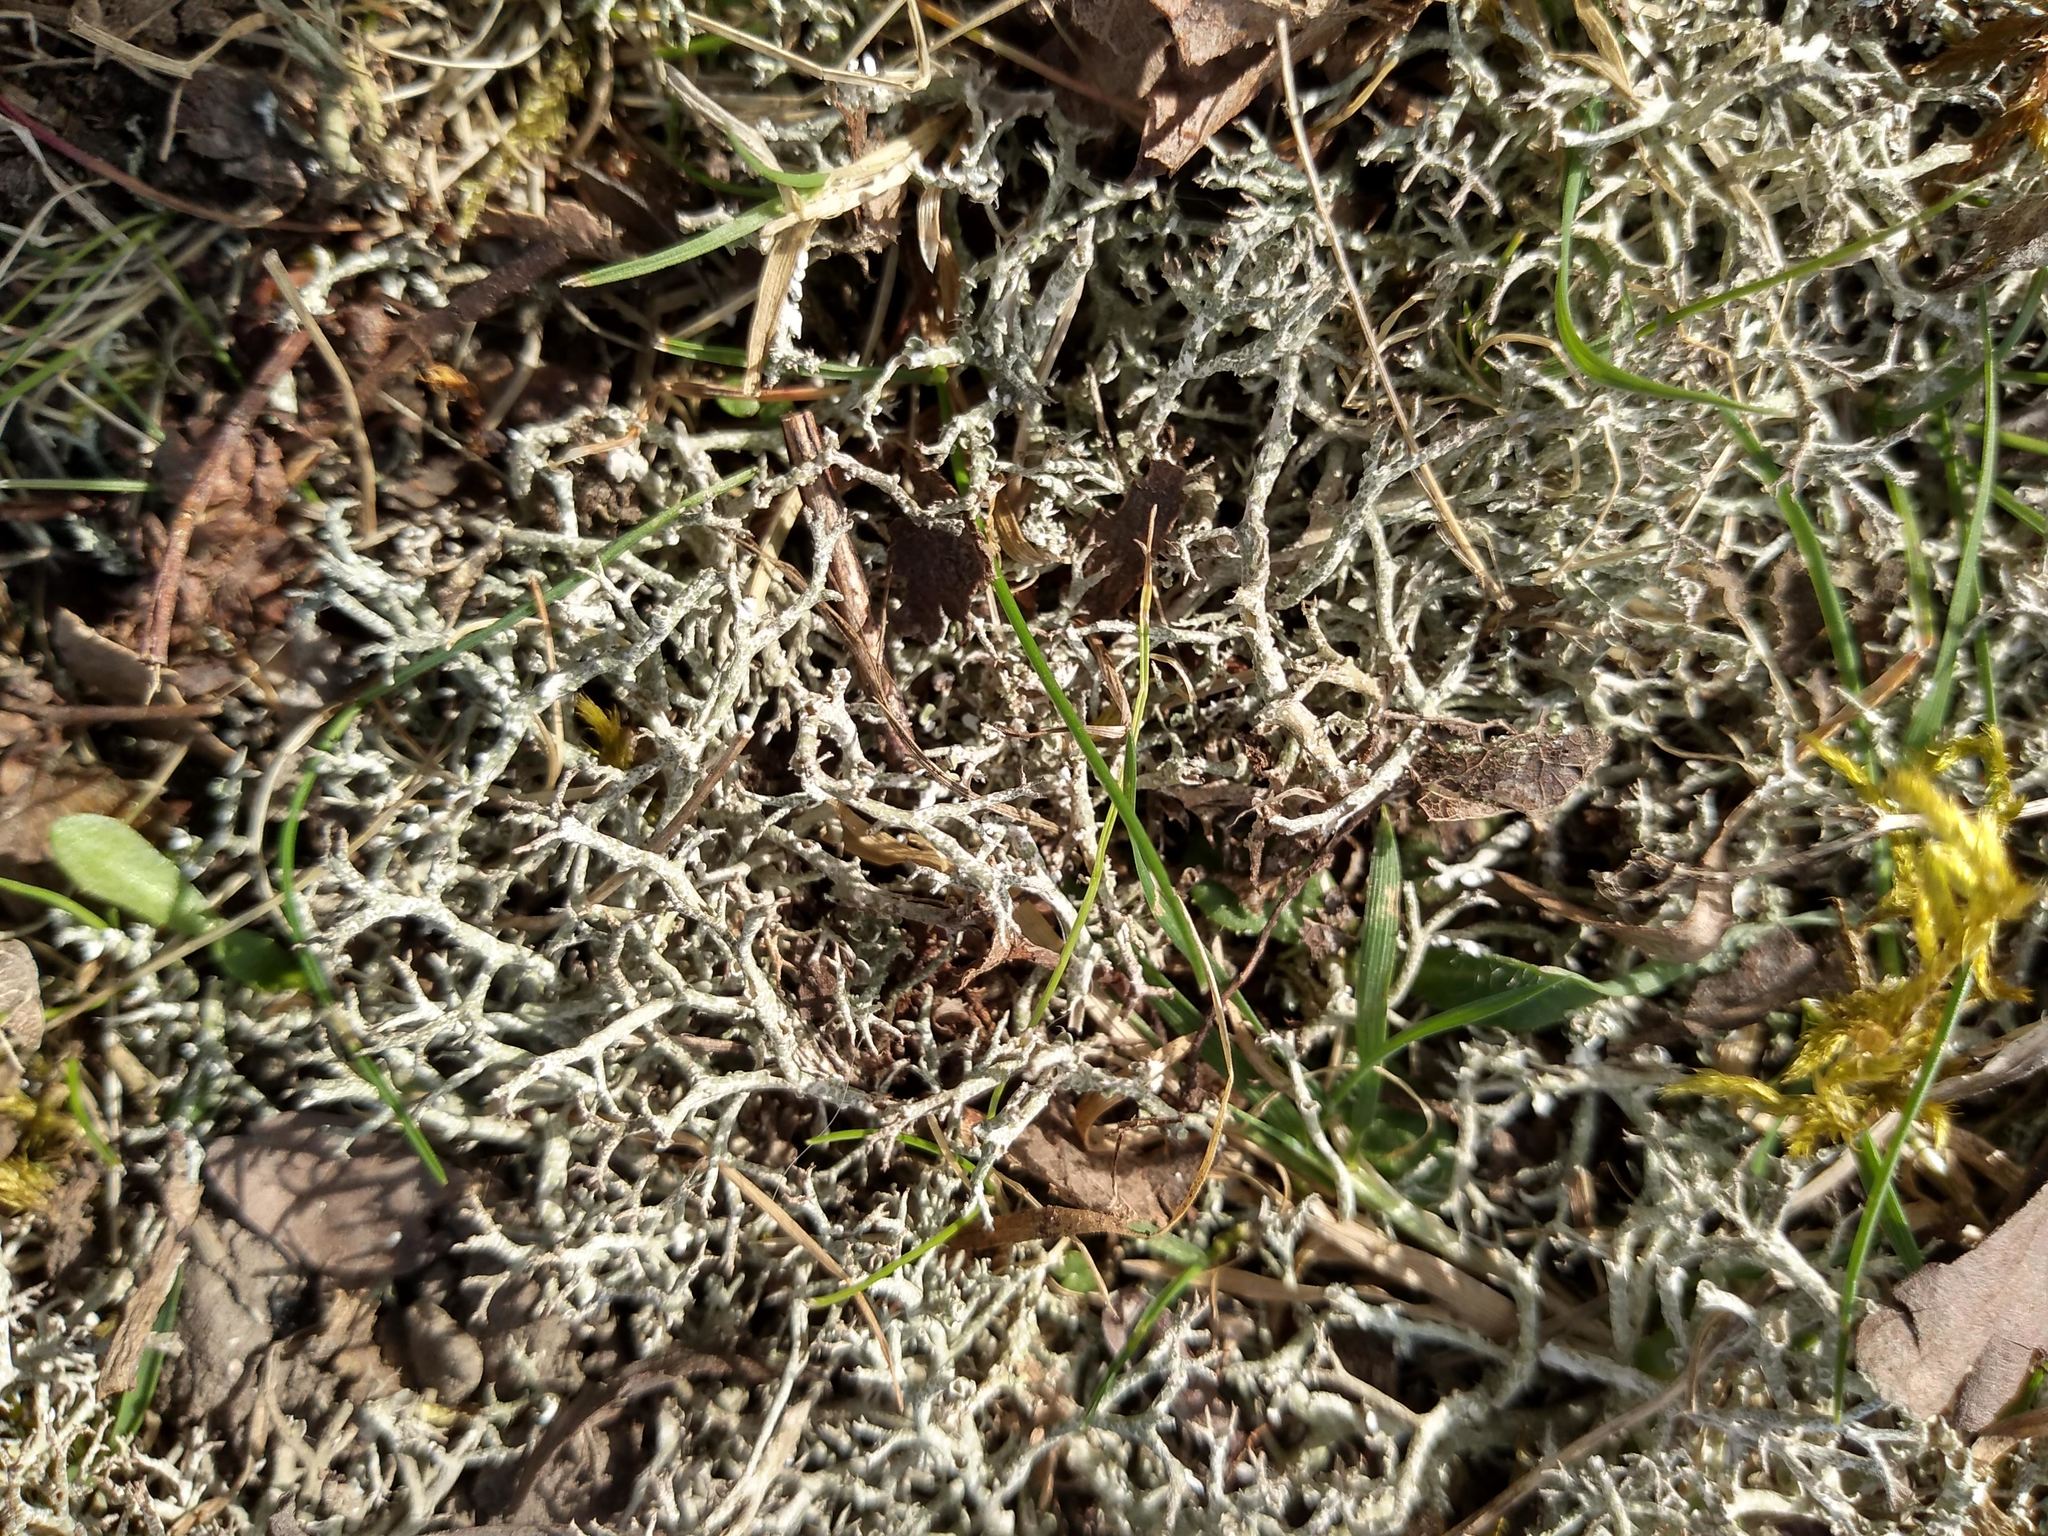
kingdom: Fungi
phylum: Ascomycota
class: Lecanoromycetes
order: Lecanorales
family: Cladoniaceae
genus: Cladonia
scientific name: Cladonia rangiformis
